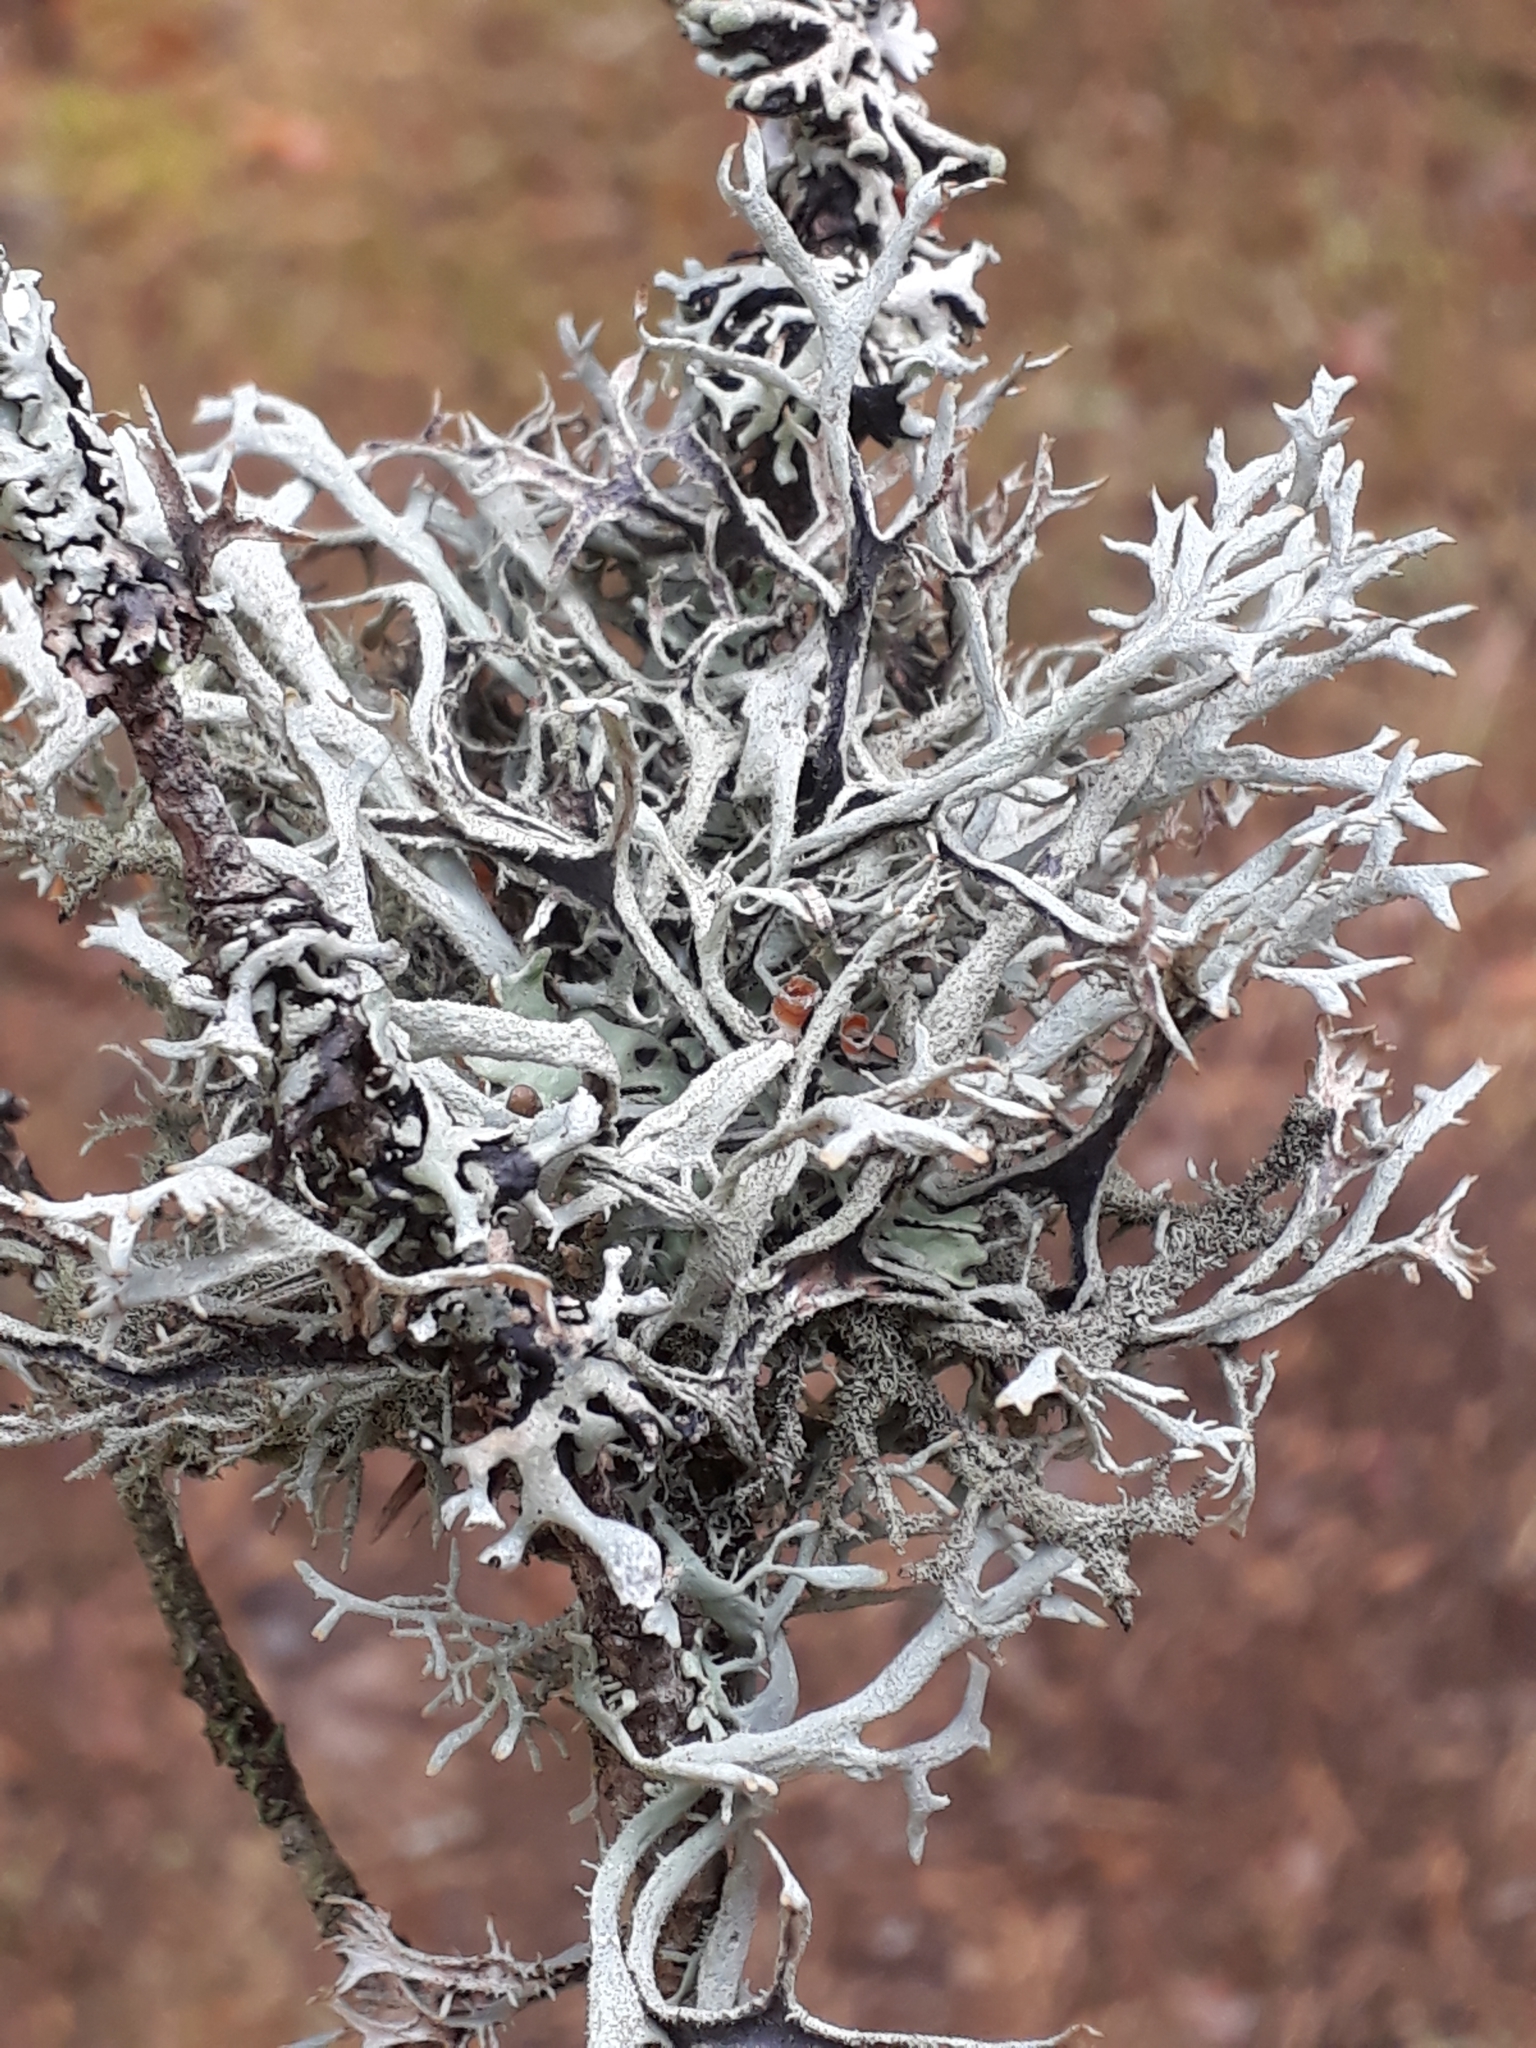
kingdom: Fungi
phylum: Ascomycota
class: Lecanoromycetes
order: Lecanorales
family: Parmeliaceae
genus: Pseudevernia
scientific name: Pseudevernia furfuracea
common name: Tree moss
